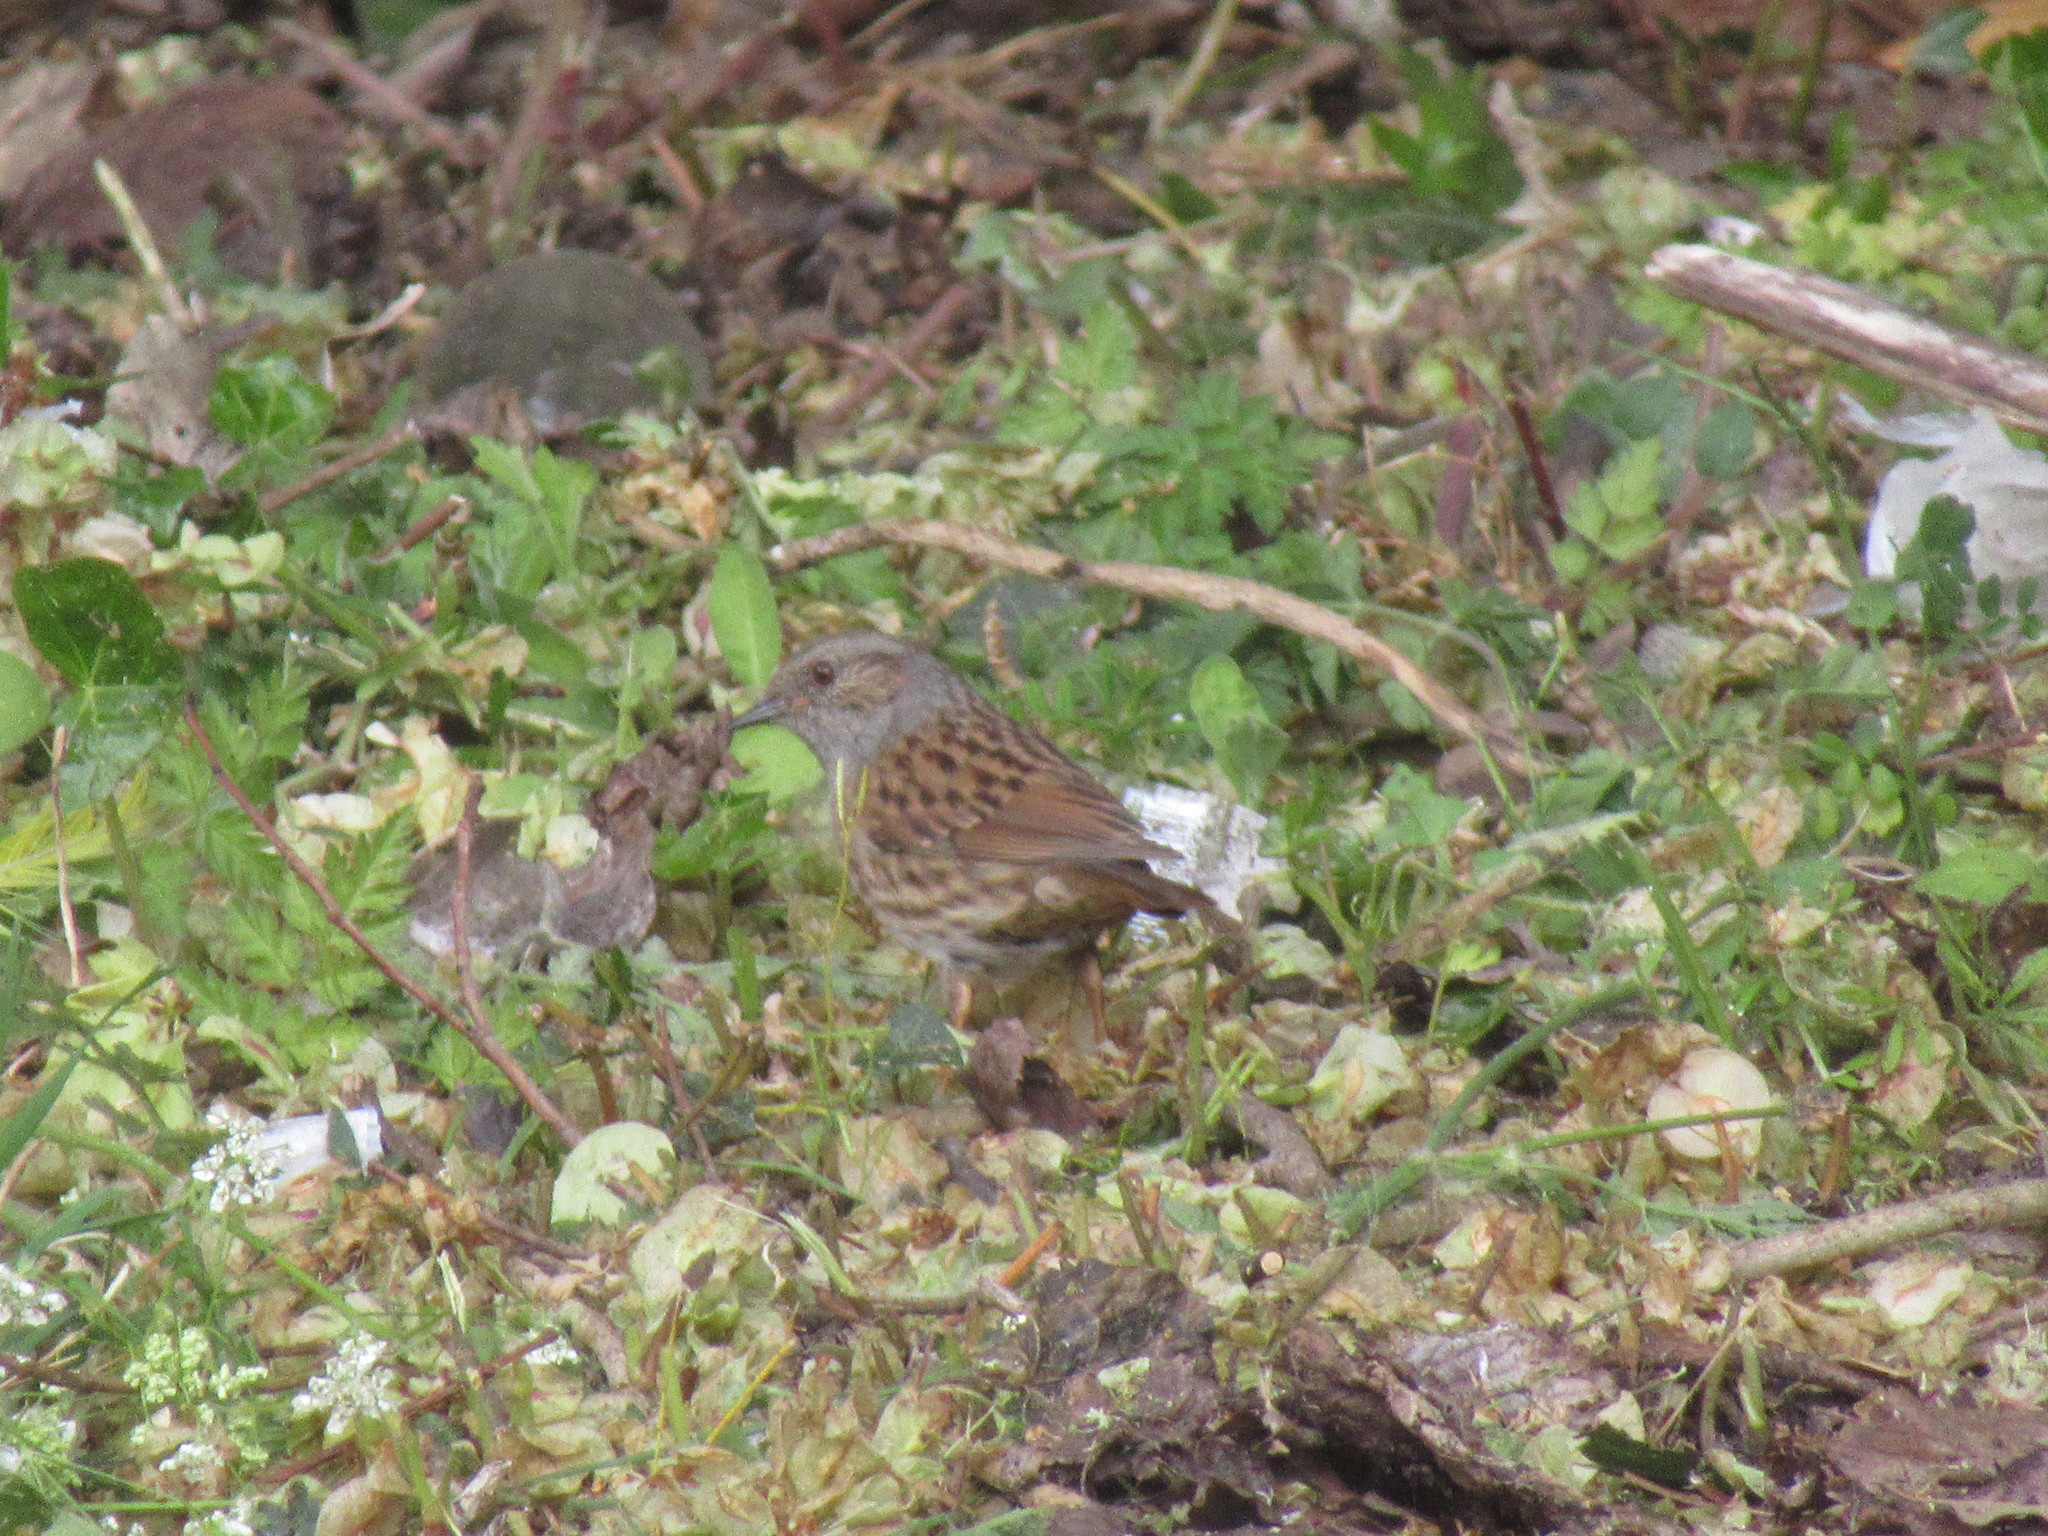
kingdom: Animalia
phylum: Chordata
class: Aves
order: Passeriformes
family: Prunellidae
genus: Prunella
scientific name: Prunella modularis
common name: Dunnock
